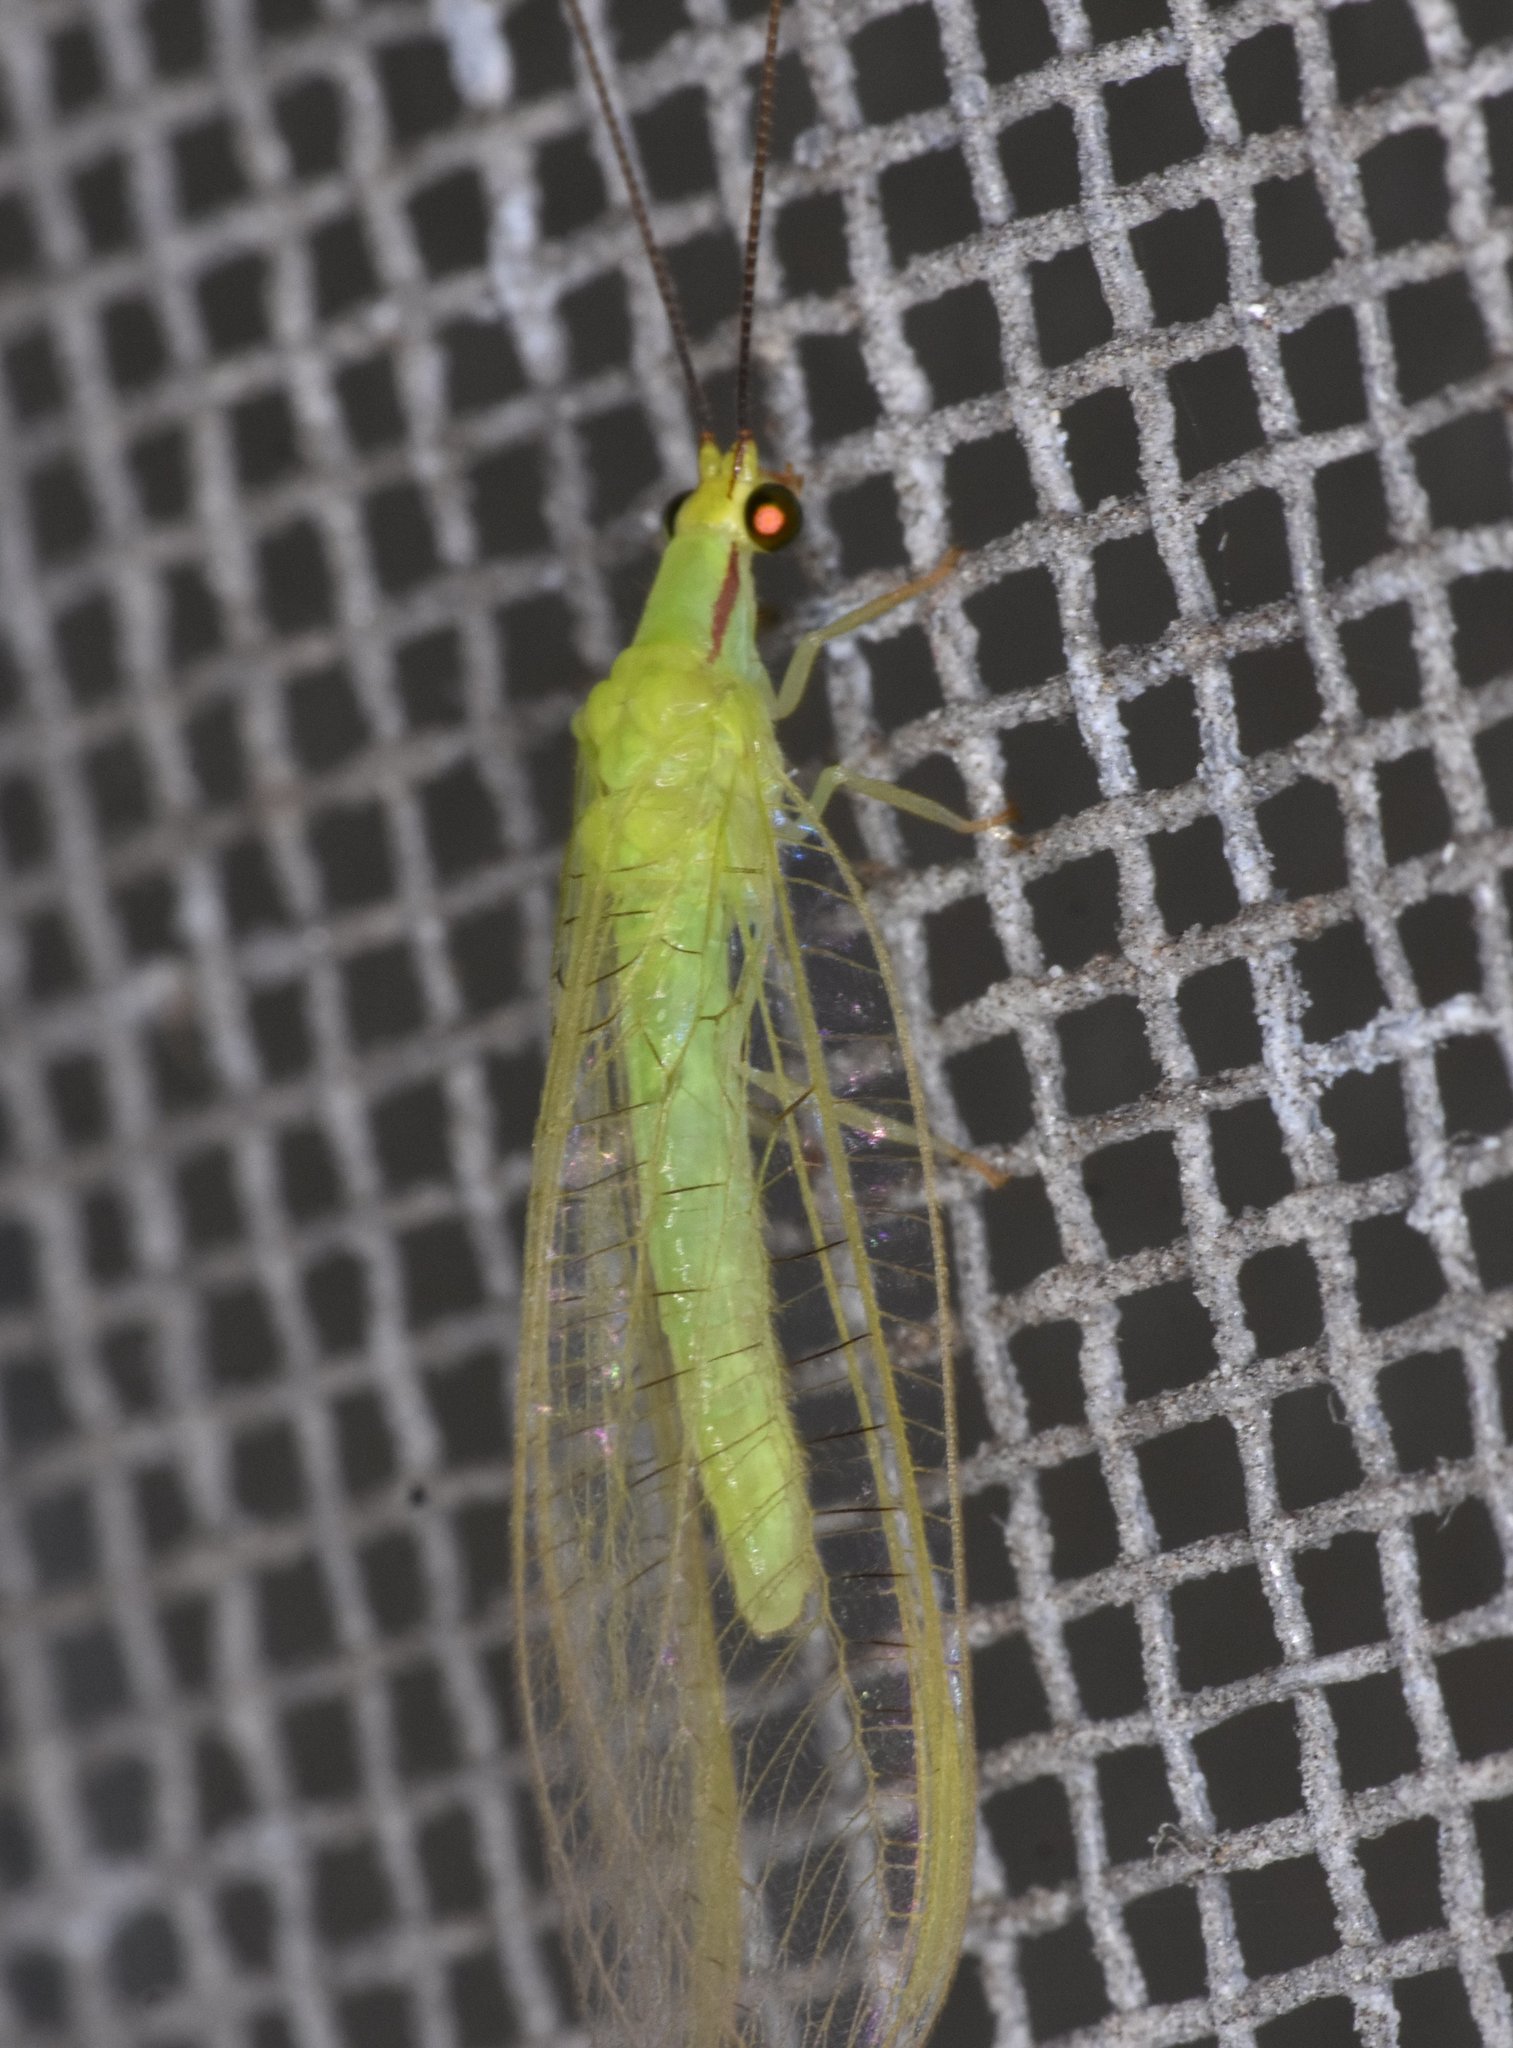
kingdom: Animalia
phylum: Arthropoda
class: Insecta
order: Neuroptera
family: Chrysopidae
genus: Ceraeochrysa
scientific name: Ceraeochrysa claveri
